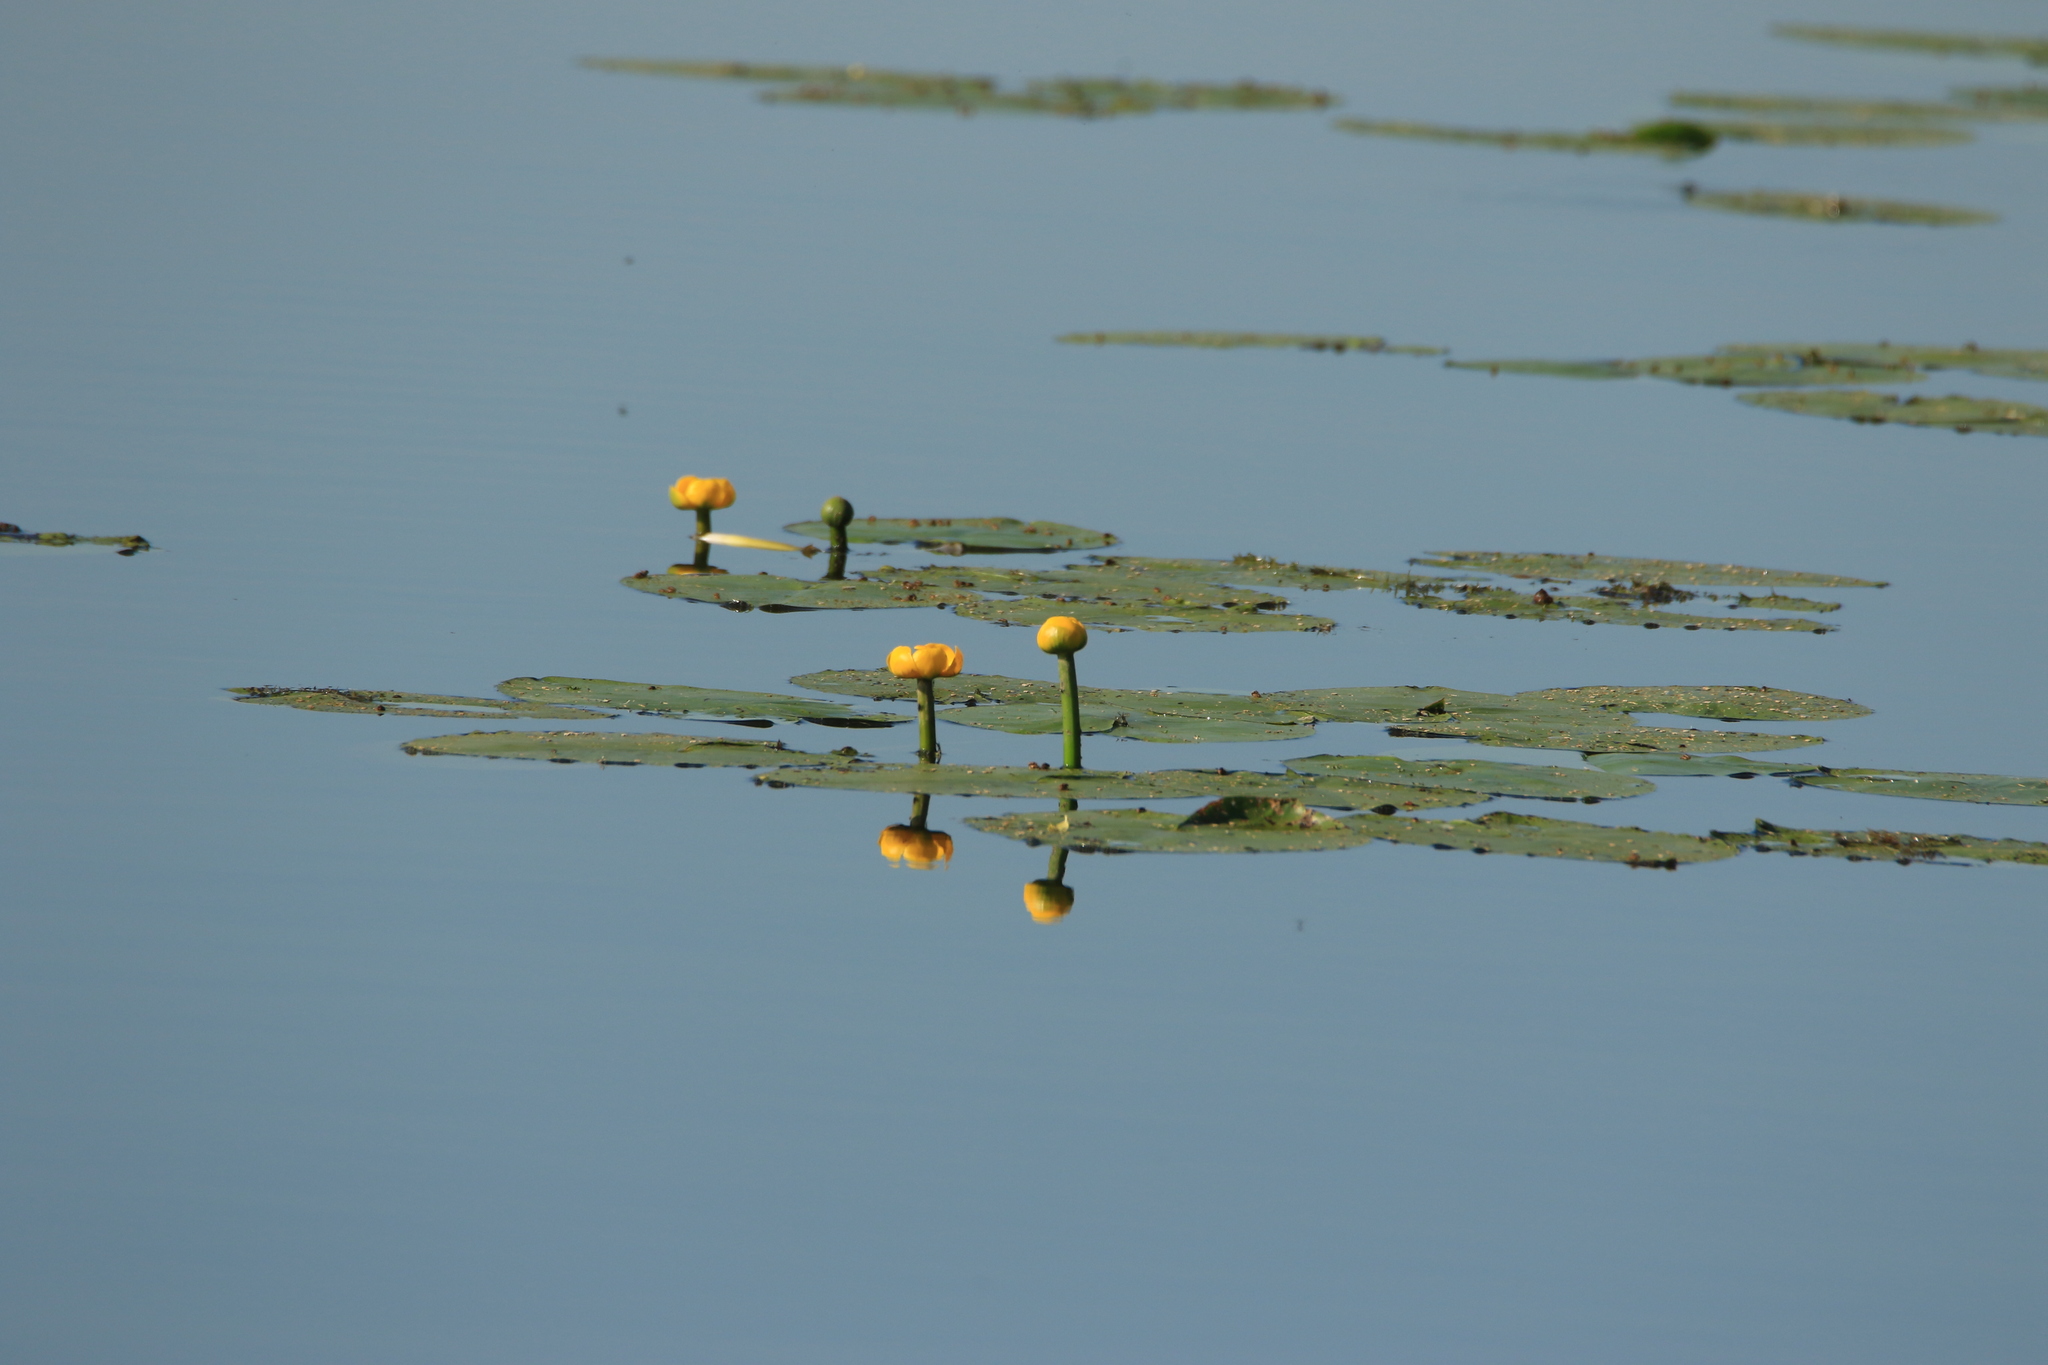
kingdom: Plantae
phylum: Tracheophyta
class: Magnoliopsida
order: Nymphaeales
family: Nymphaeaceae
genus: Nuphar
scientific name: Nuphar lutea
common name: Yellow water-lily
